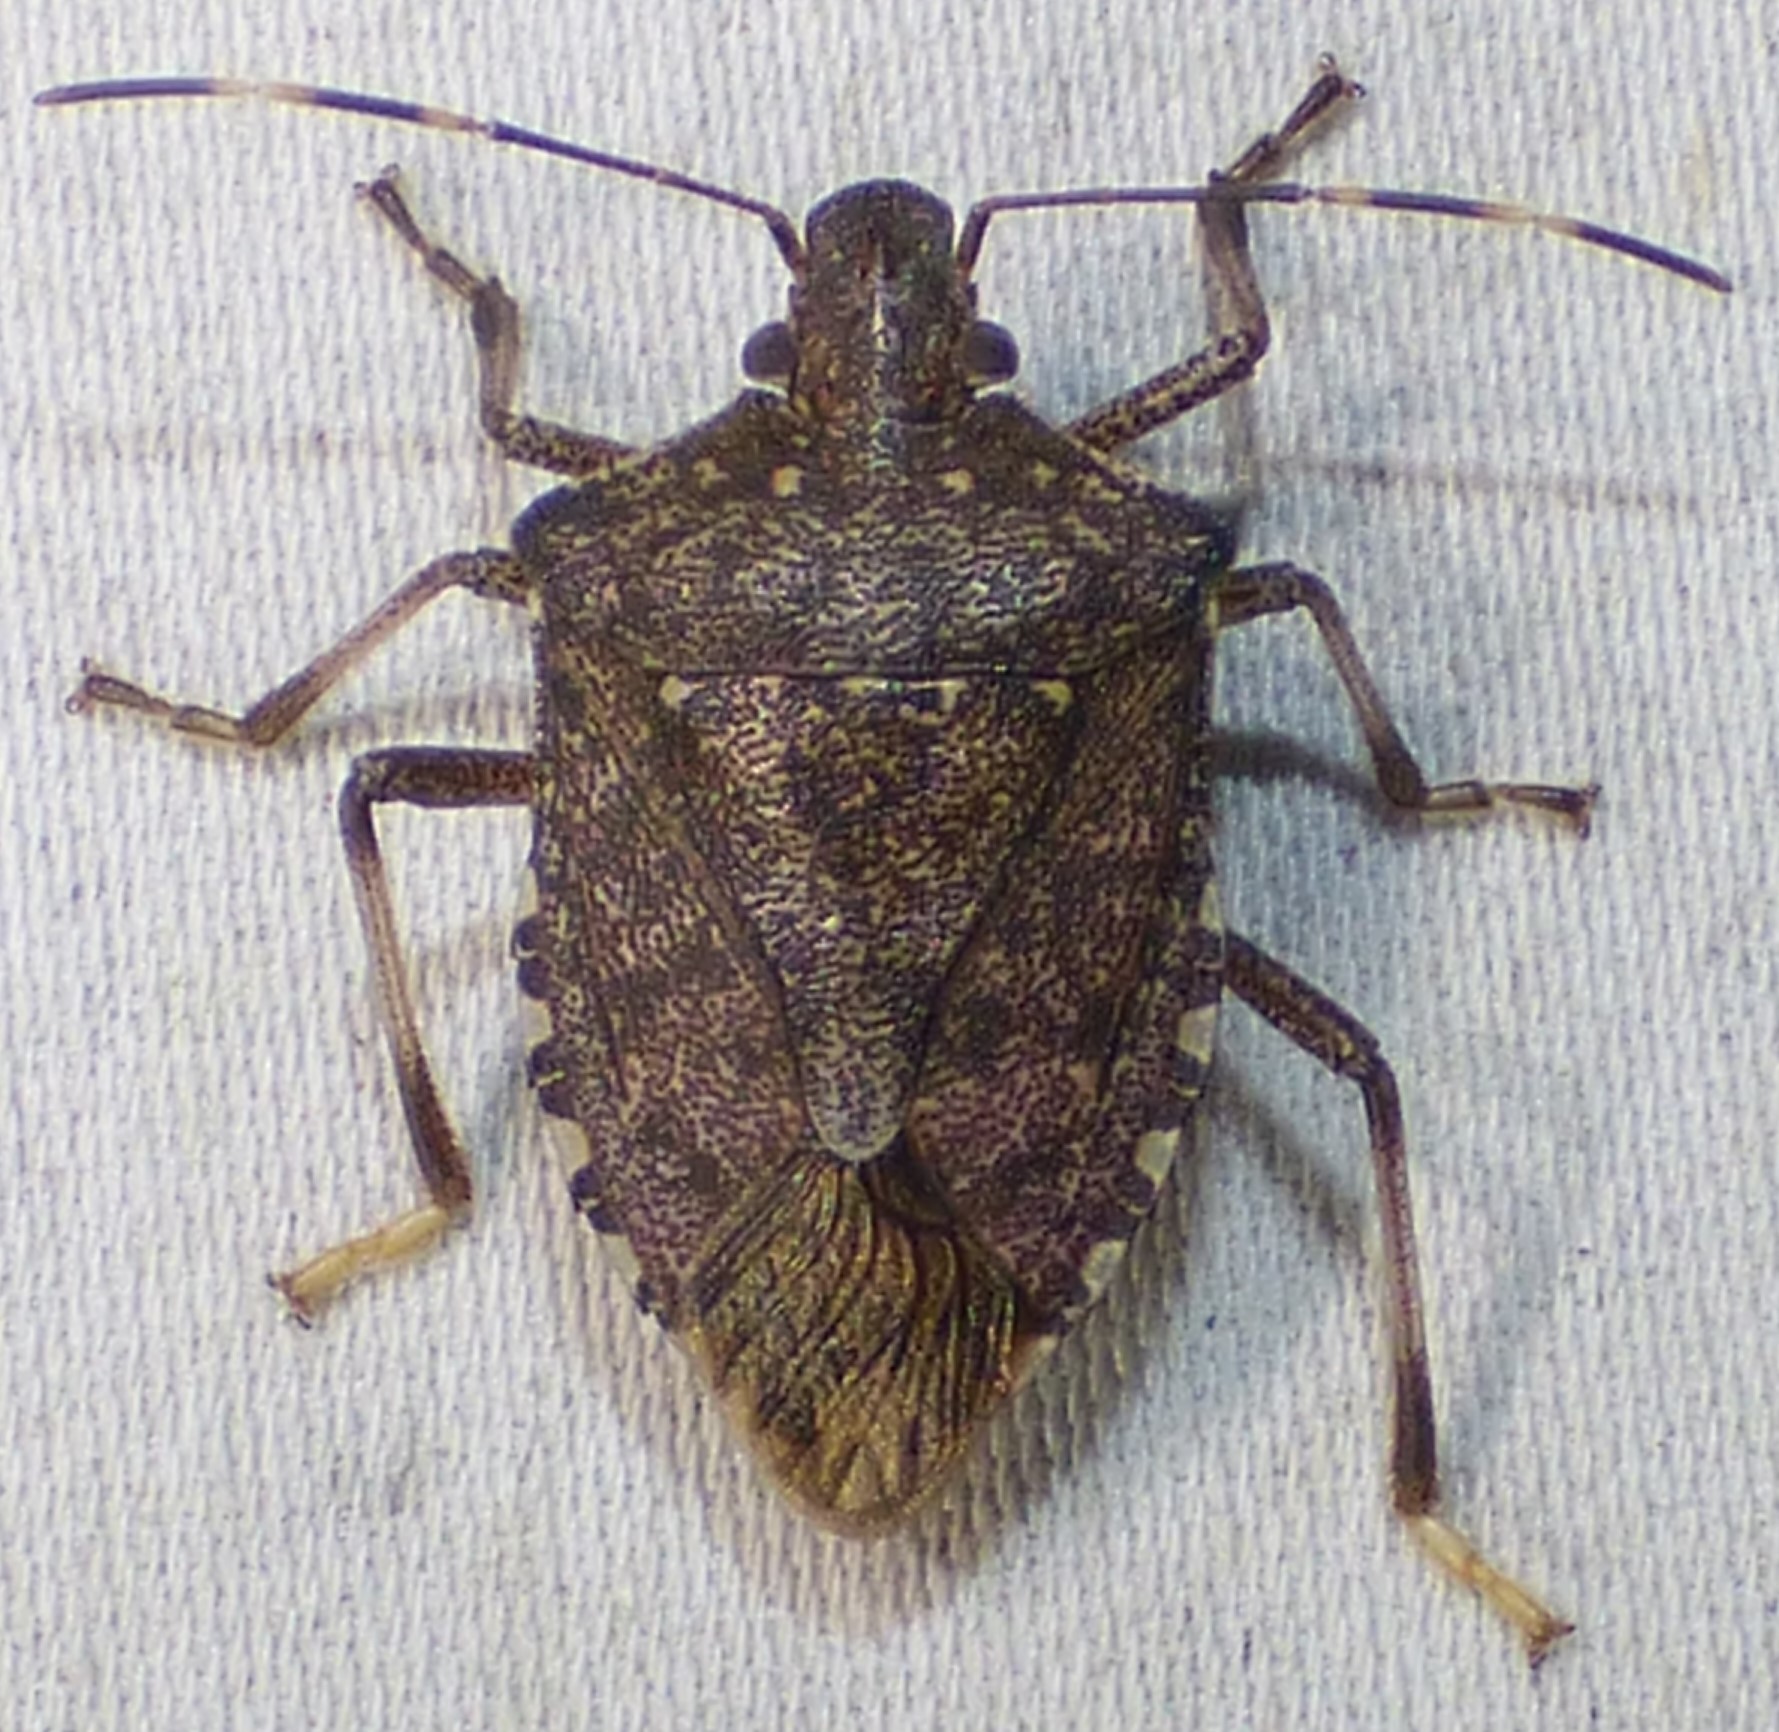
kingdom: Animalia
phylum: Arthropoda
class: Insecta
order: Hemiptera
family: Pentatomidae
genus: Halyomorpha
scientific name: Halyomorpha halys
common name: Brown marmorated stink bug
